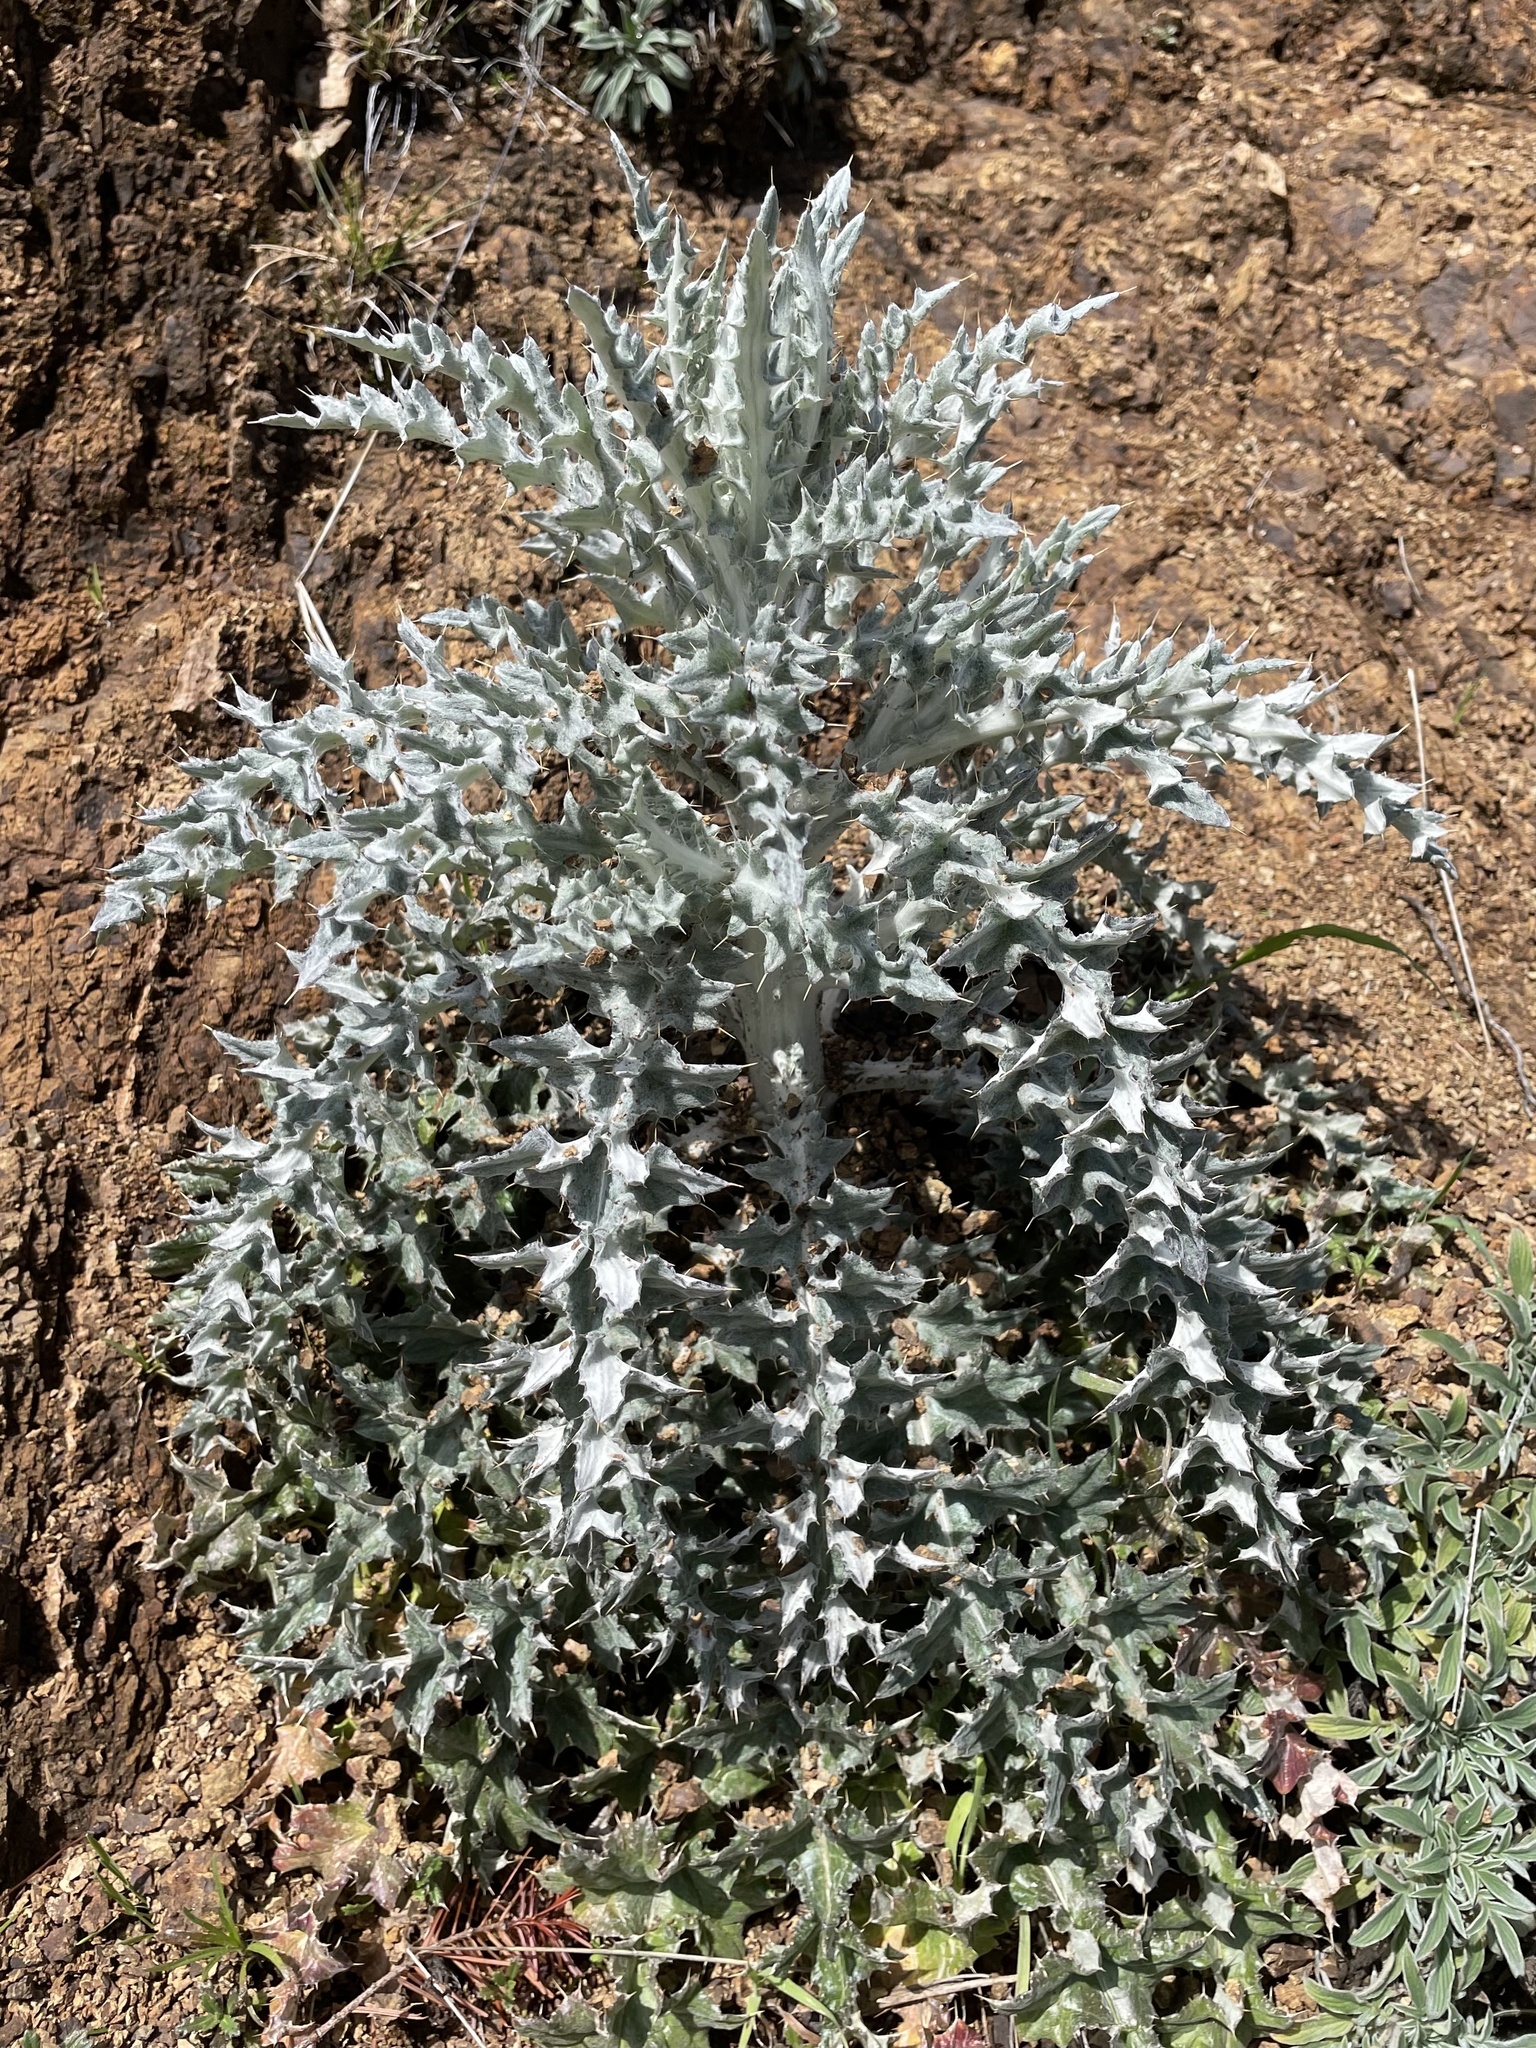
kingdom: Plantae
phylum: Tracheophyta
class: Magnoliopsida
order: Asterales
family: Asteraceae
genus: Cirsium
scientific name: Cirsium occidentale
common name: Western thistle
